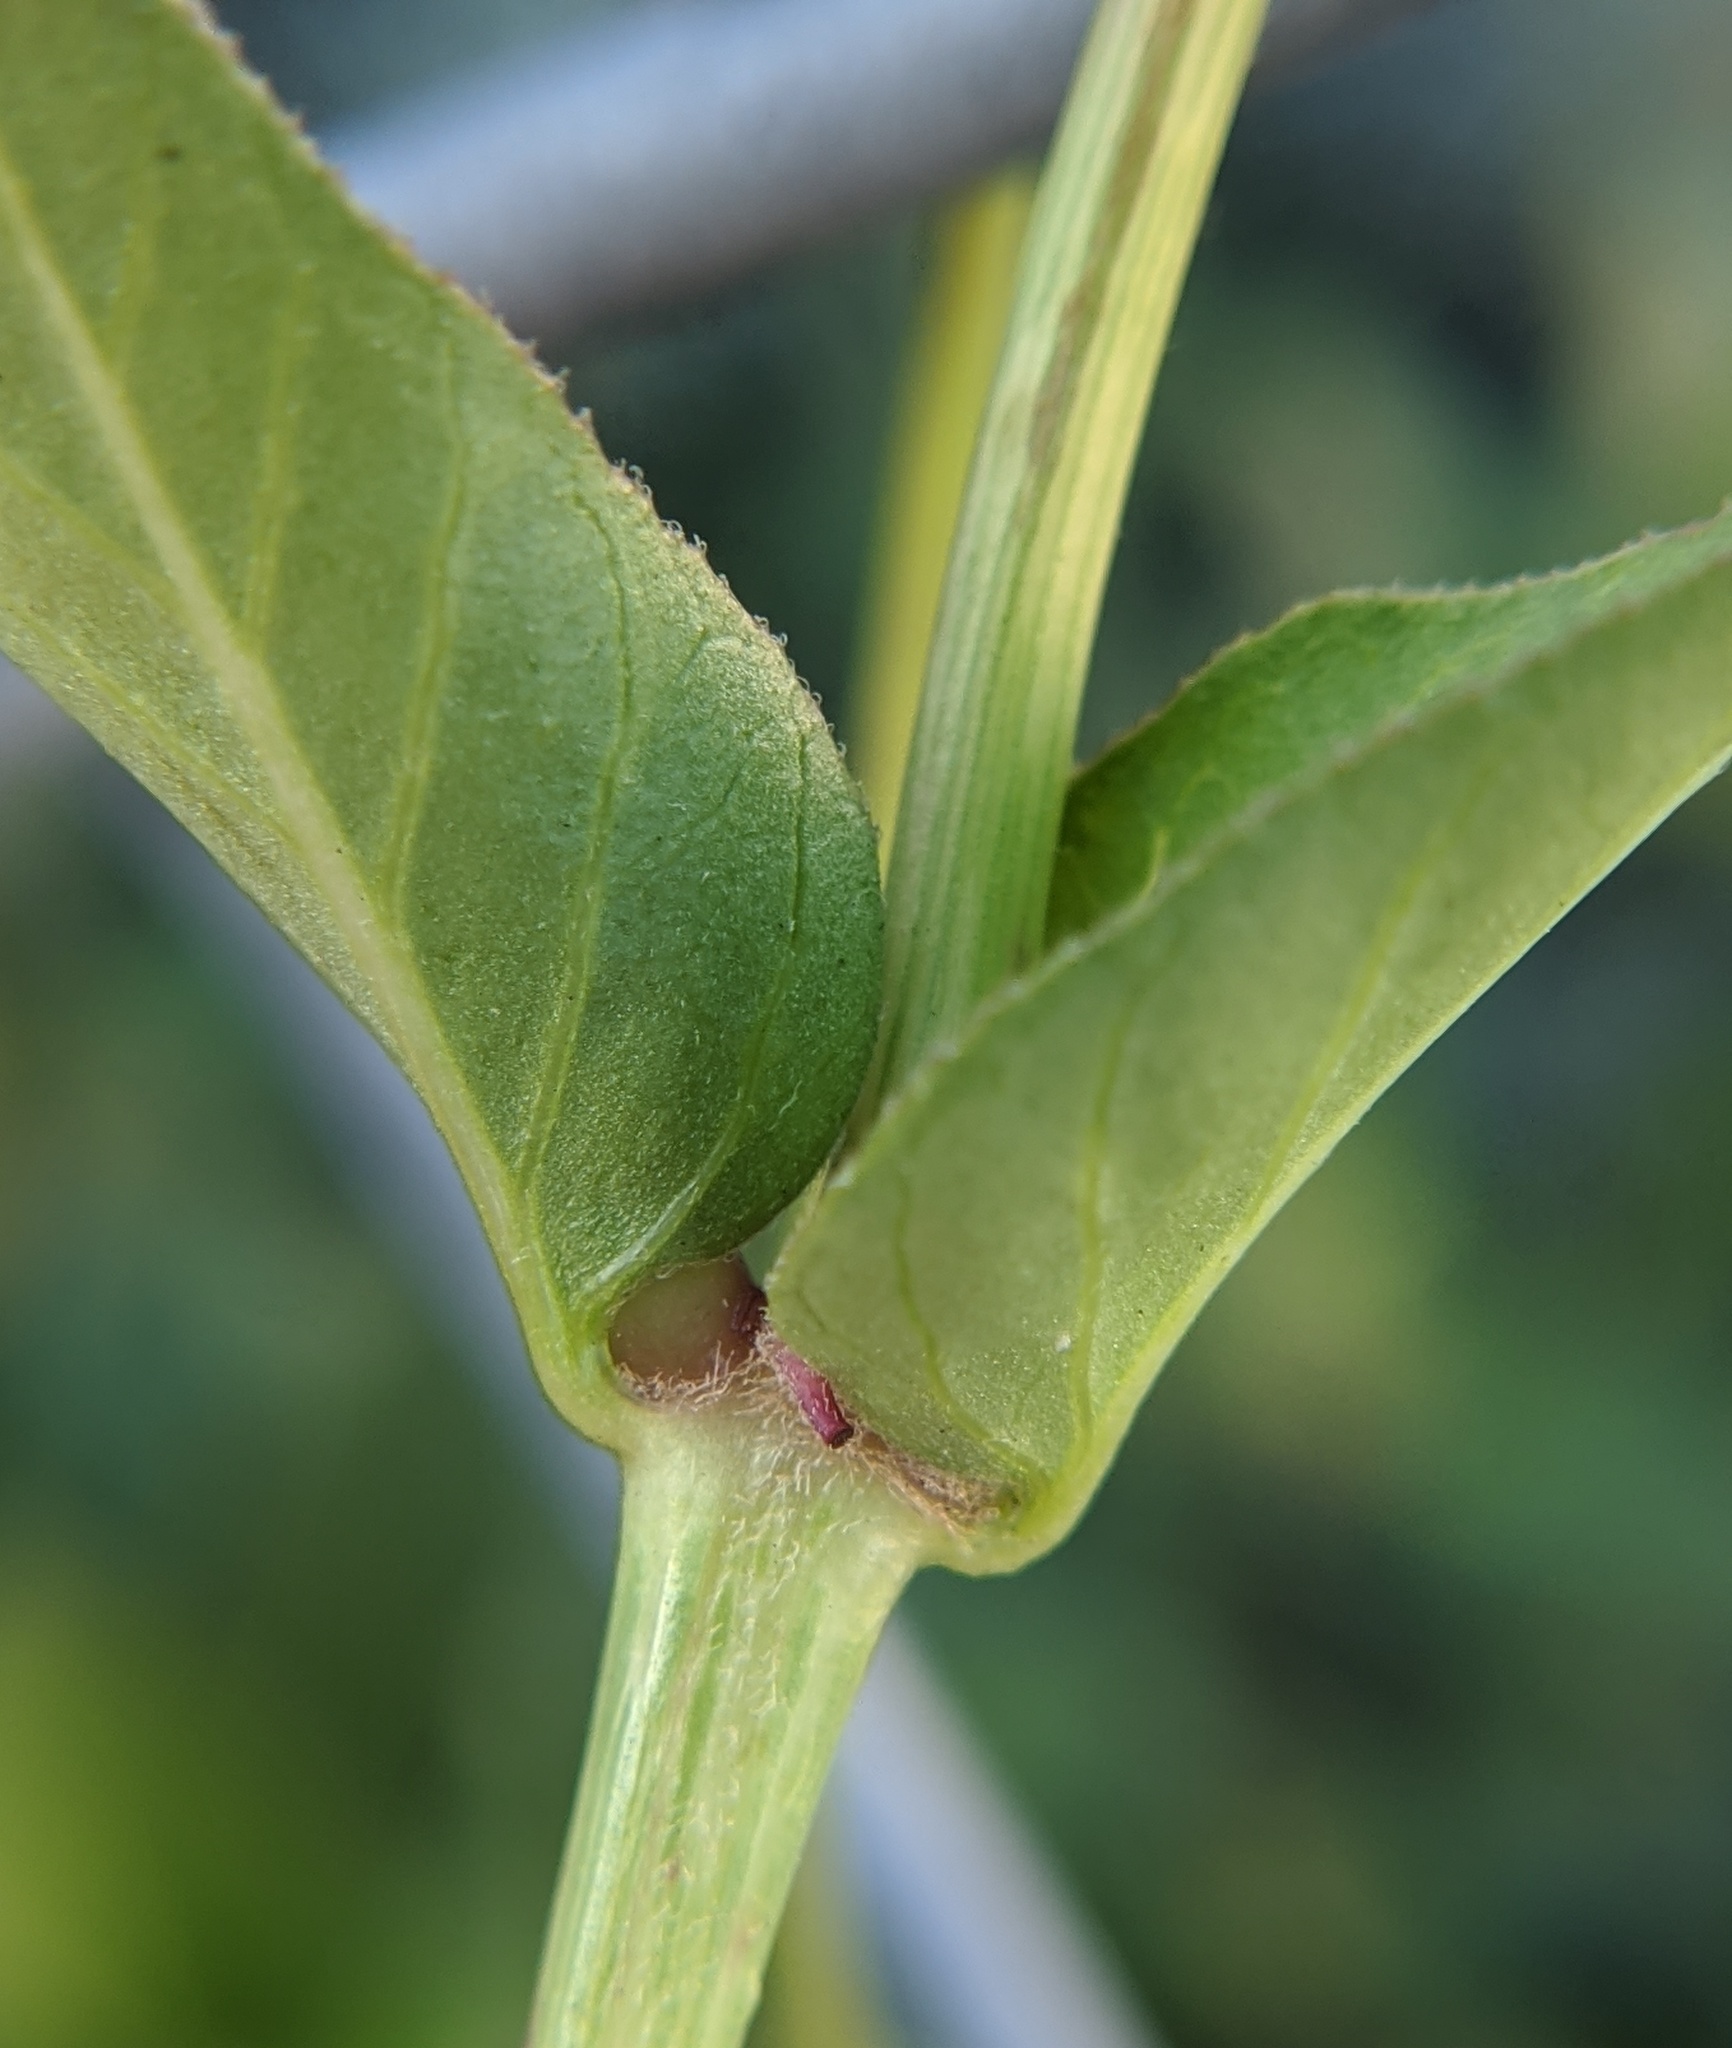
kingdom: Plantae
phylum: Tracheophyta
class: Magnoliopsida
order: Caryophyllales
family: Nyctaginaceae
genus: Mirabilis
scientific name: Mirabilis nyctaginea
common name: Umbrella wort
